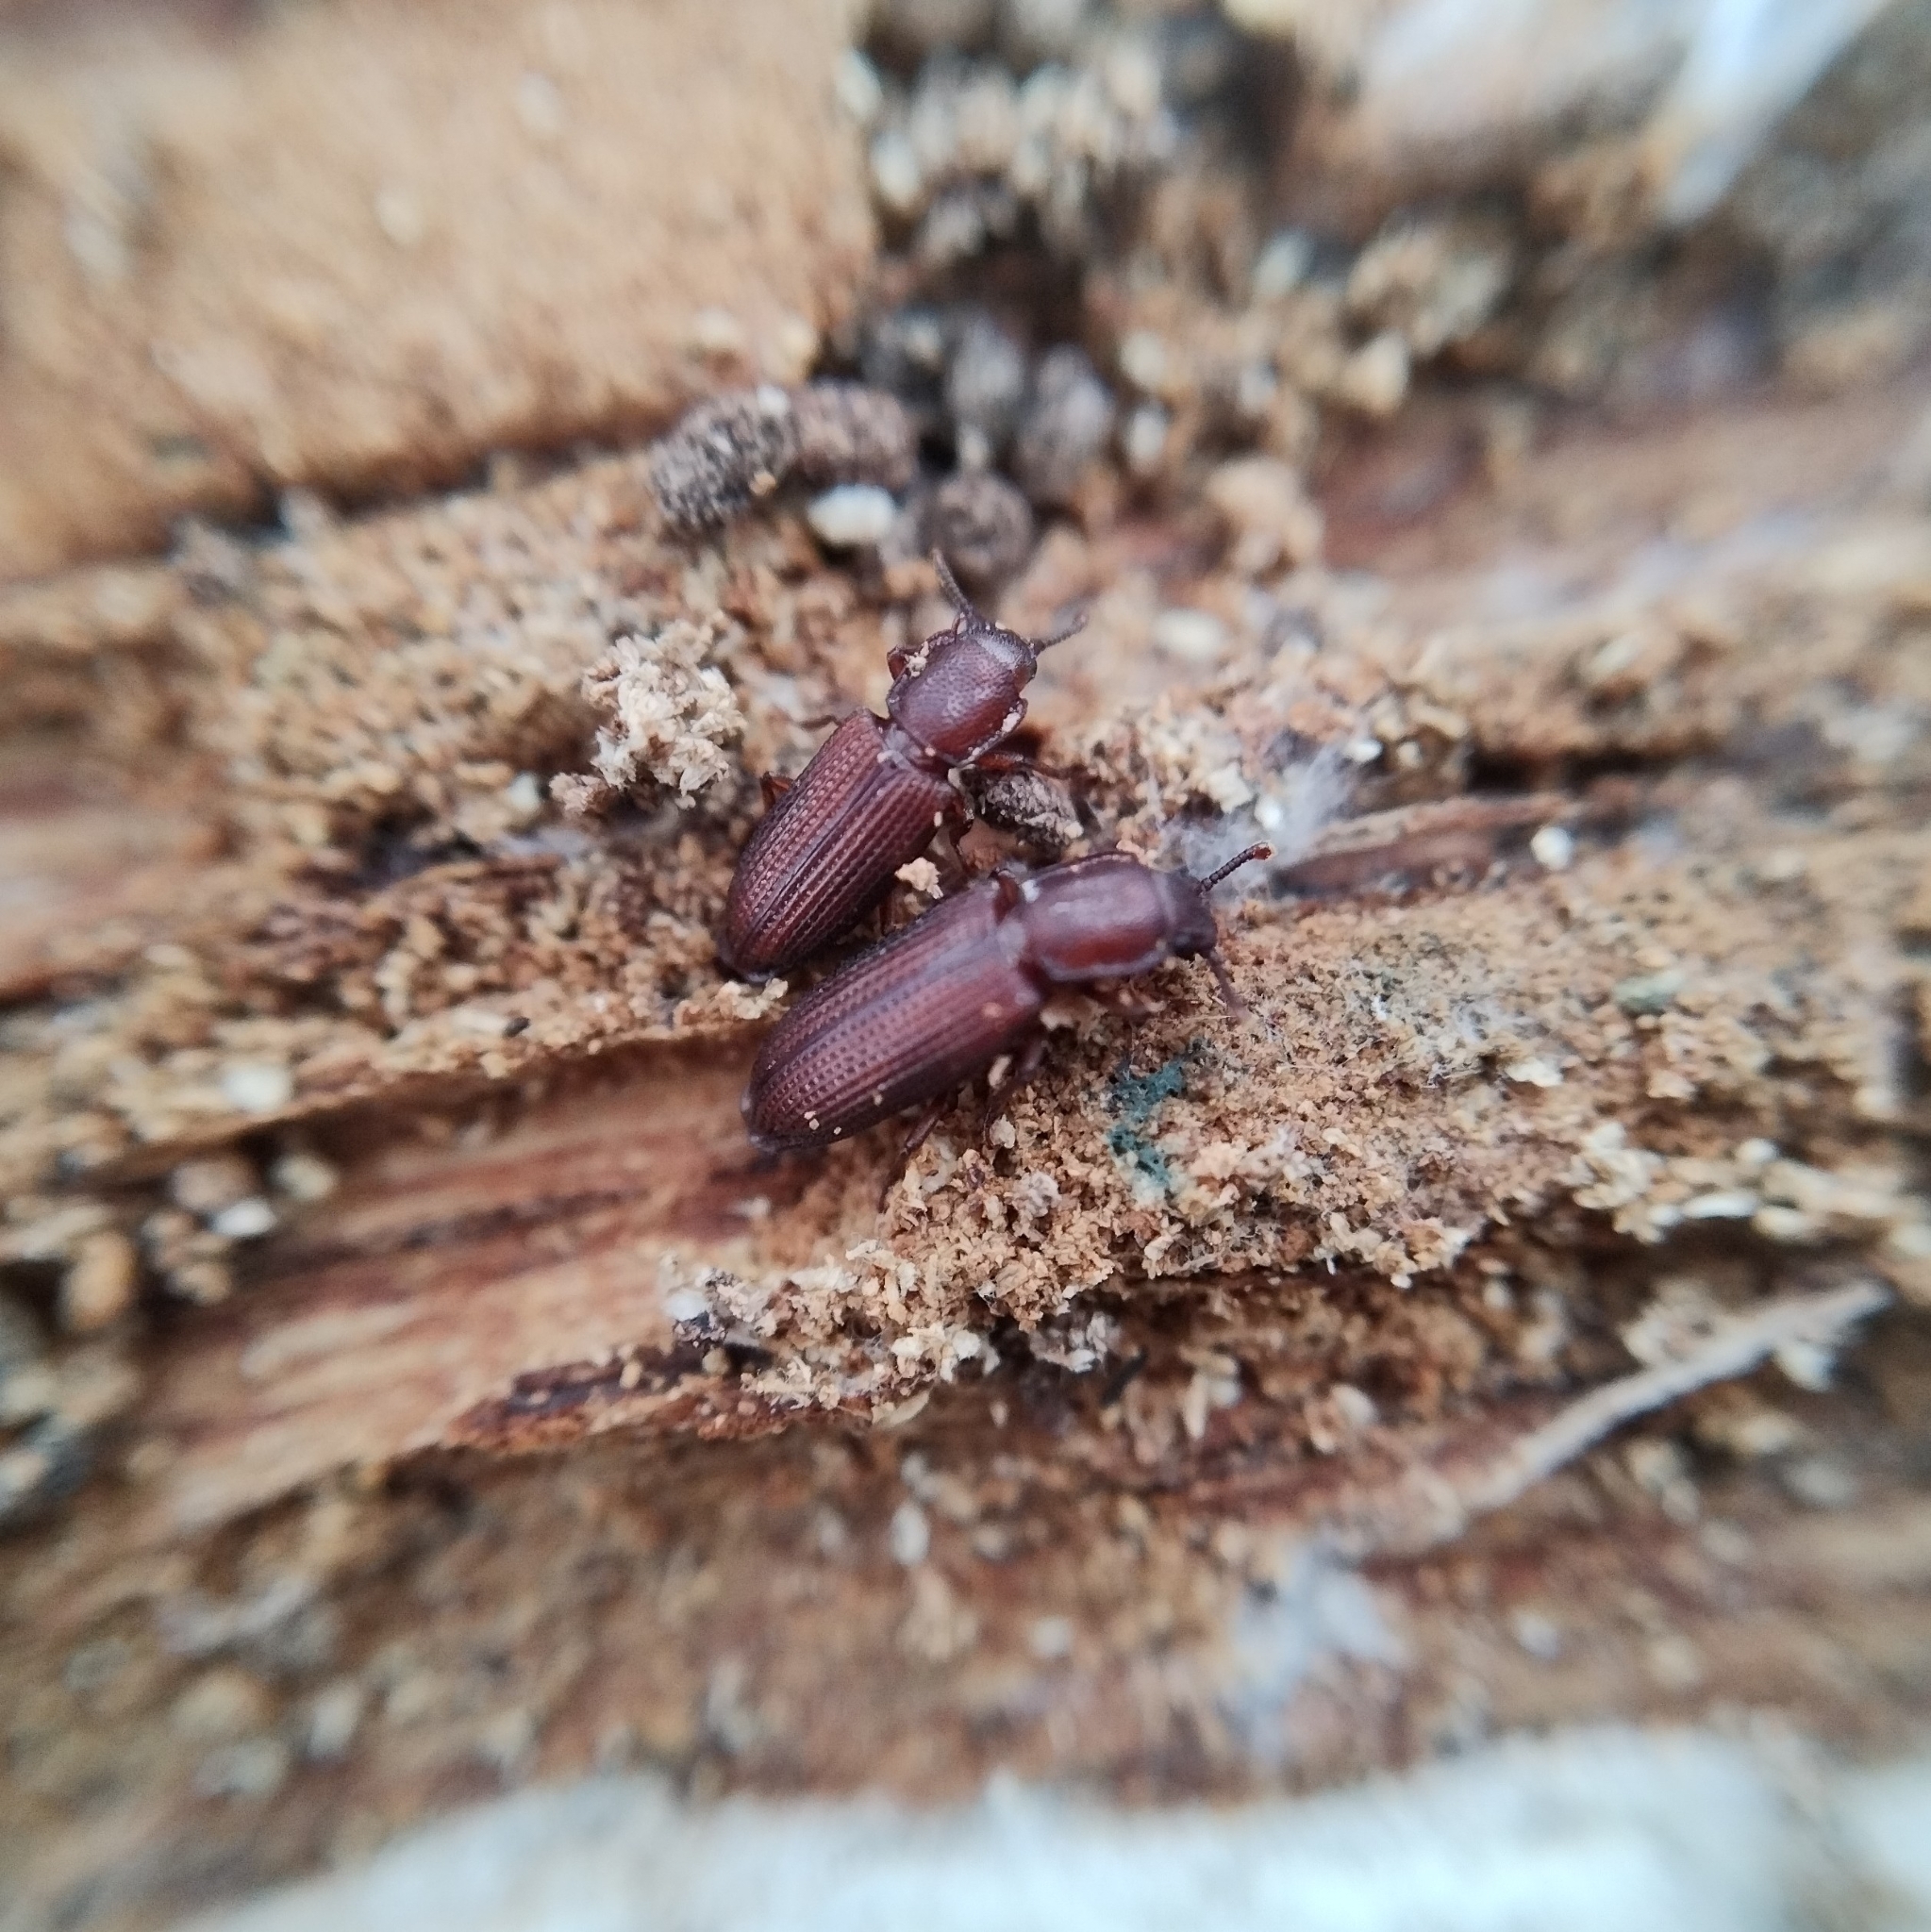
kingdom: Animalia
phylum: Arthropoda
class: Insecta
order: Coleoptera
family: Zopheridae
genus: Pycnomerus
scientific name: Pycnomerus terebrans
